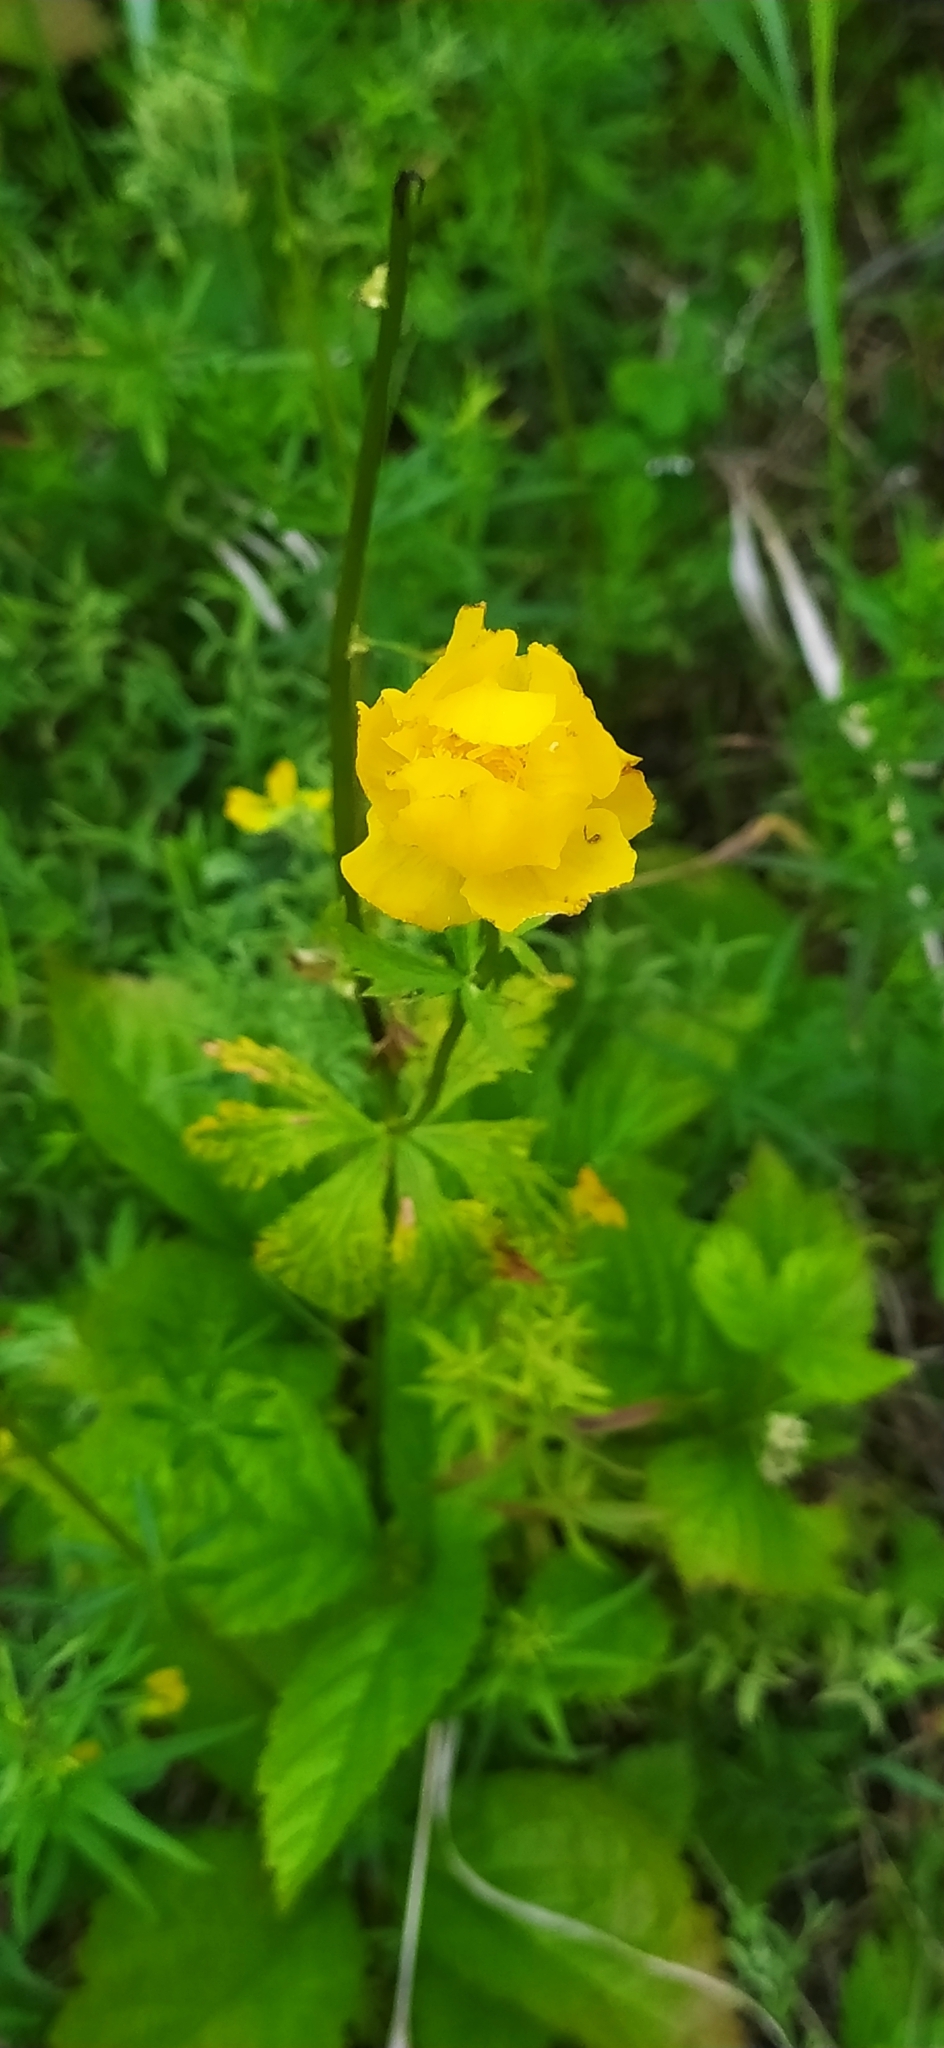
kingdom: Plantae
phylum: Tracheophyta
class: Magnoliopsida
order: Ranunculales
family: Ranunculaceae
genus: Trollius
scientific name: Trollius europaeus
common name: European globeflower
